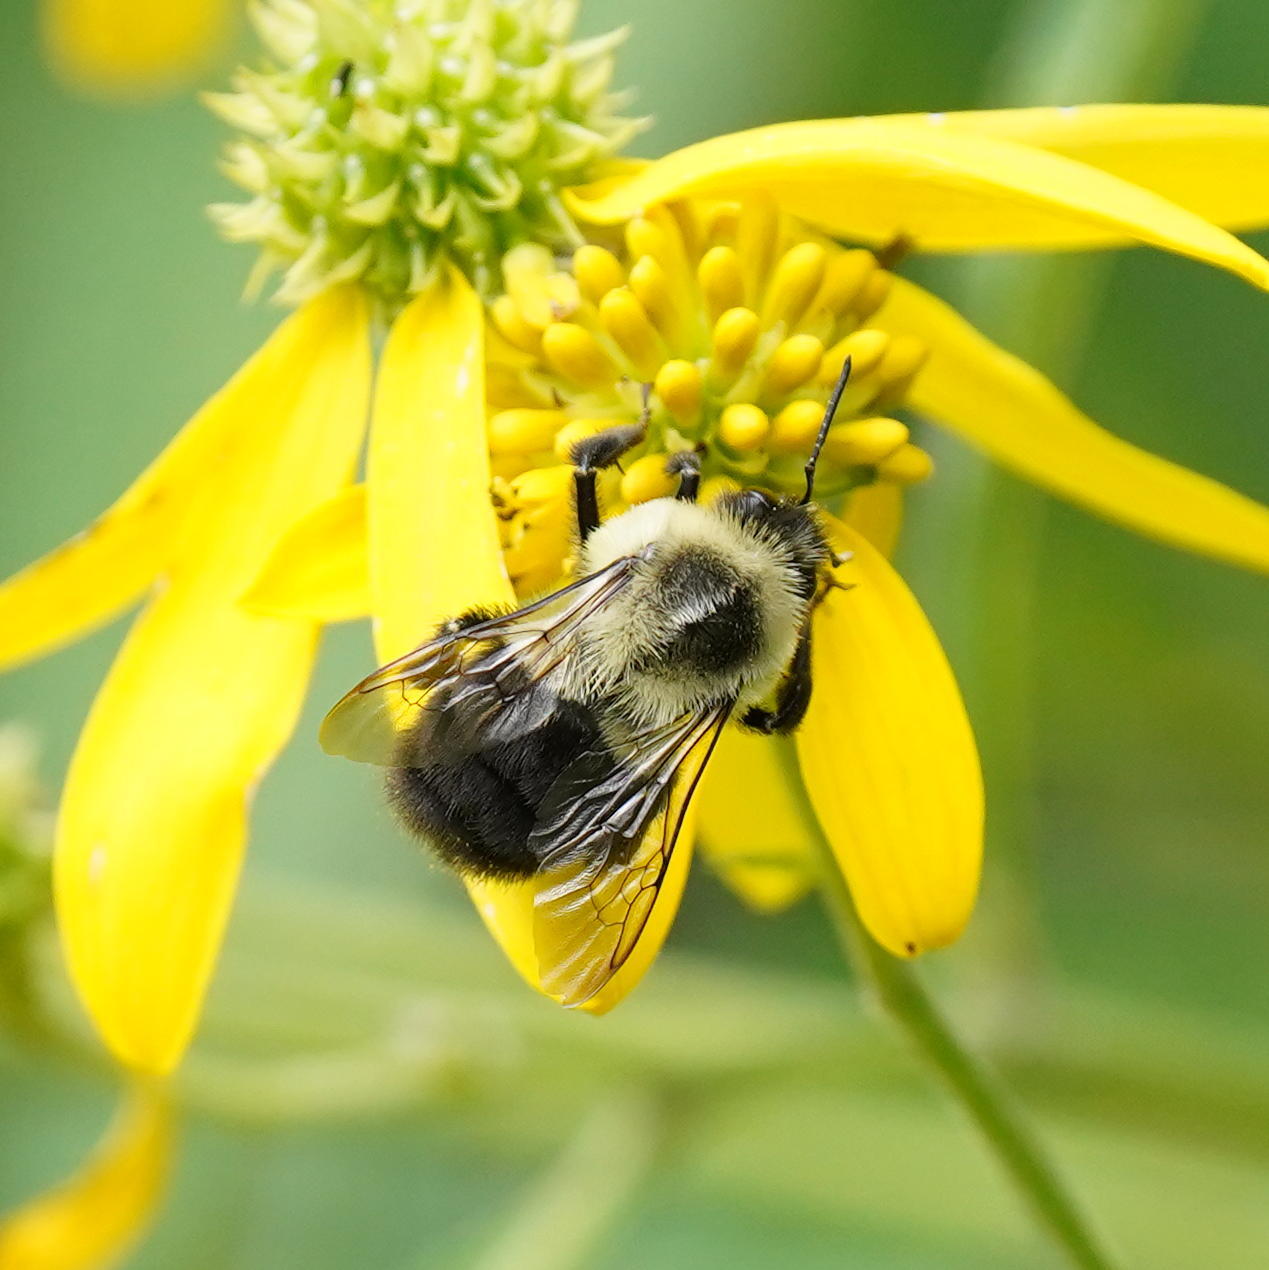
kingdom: Animalia
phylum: Arthropoda
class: Insecta
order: Hymenoptera
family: Apidae
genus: Bombus
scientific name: Bombus impatiens
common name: Common eastern bumble bee
